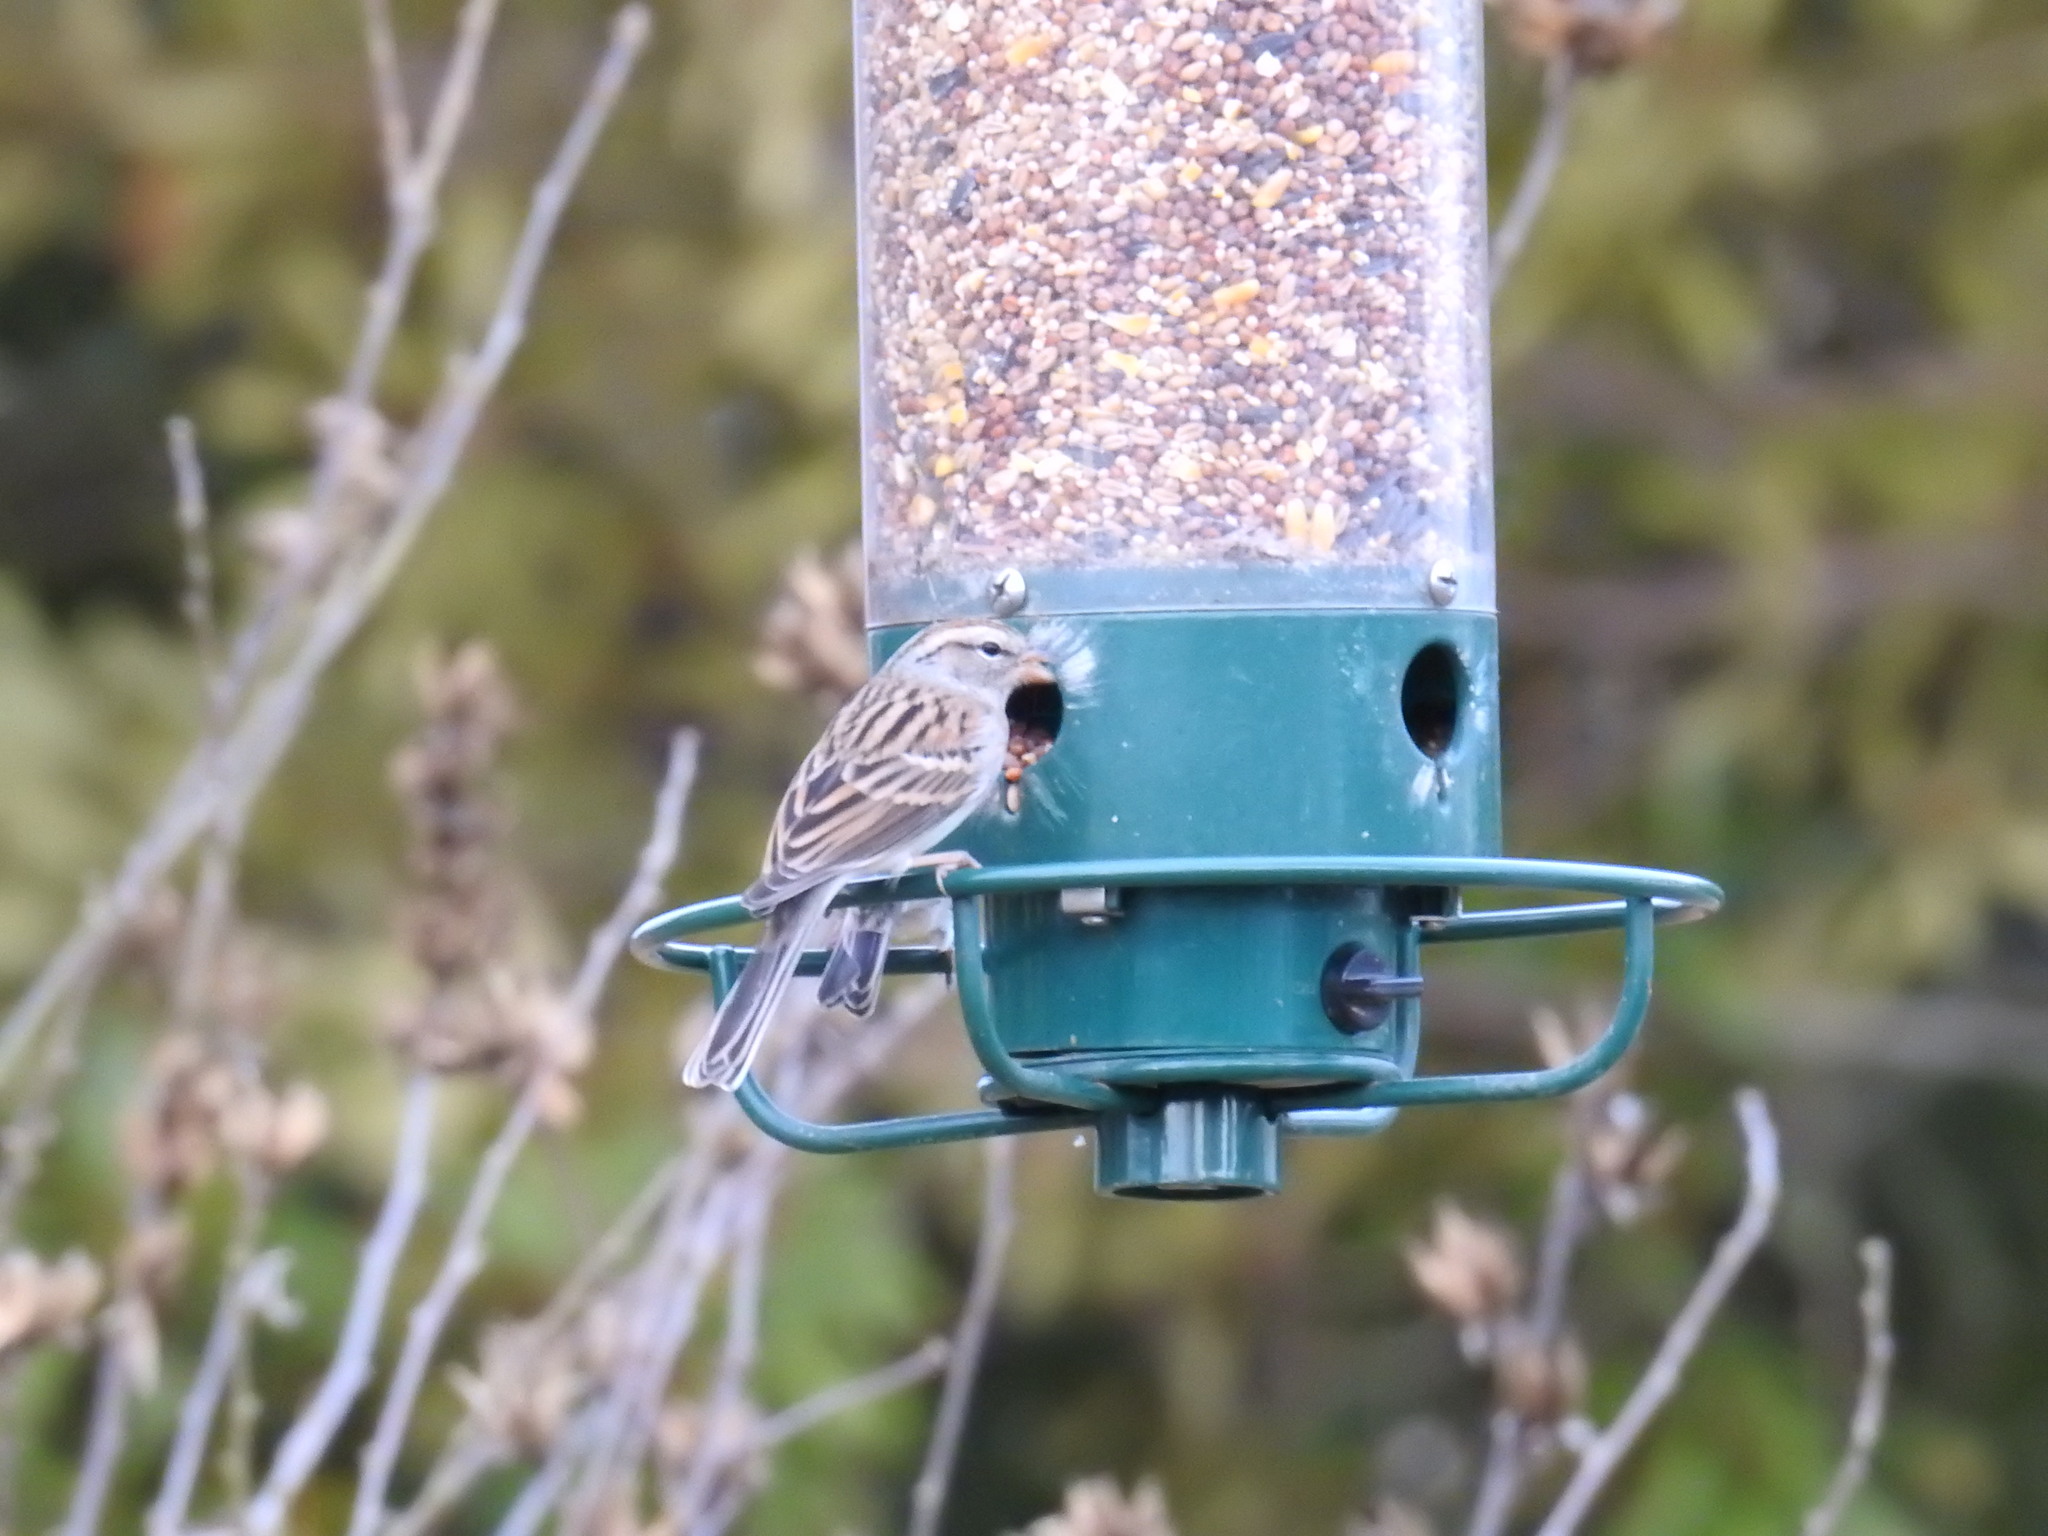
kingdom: Animalia
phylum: Chordata
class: Aves
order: Passeriformes
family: Passerellidae
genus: Spizella
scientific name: Spizella passerina
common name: Chipping sparrow
